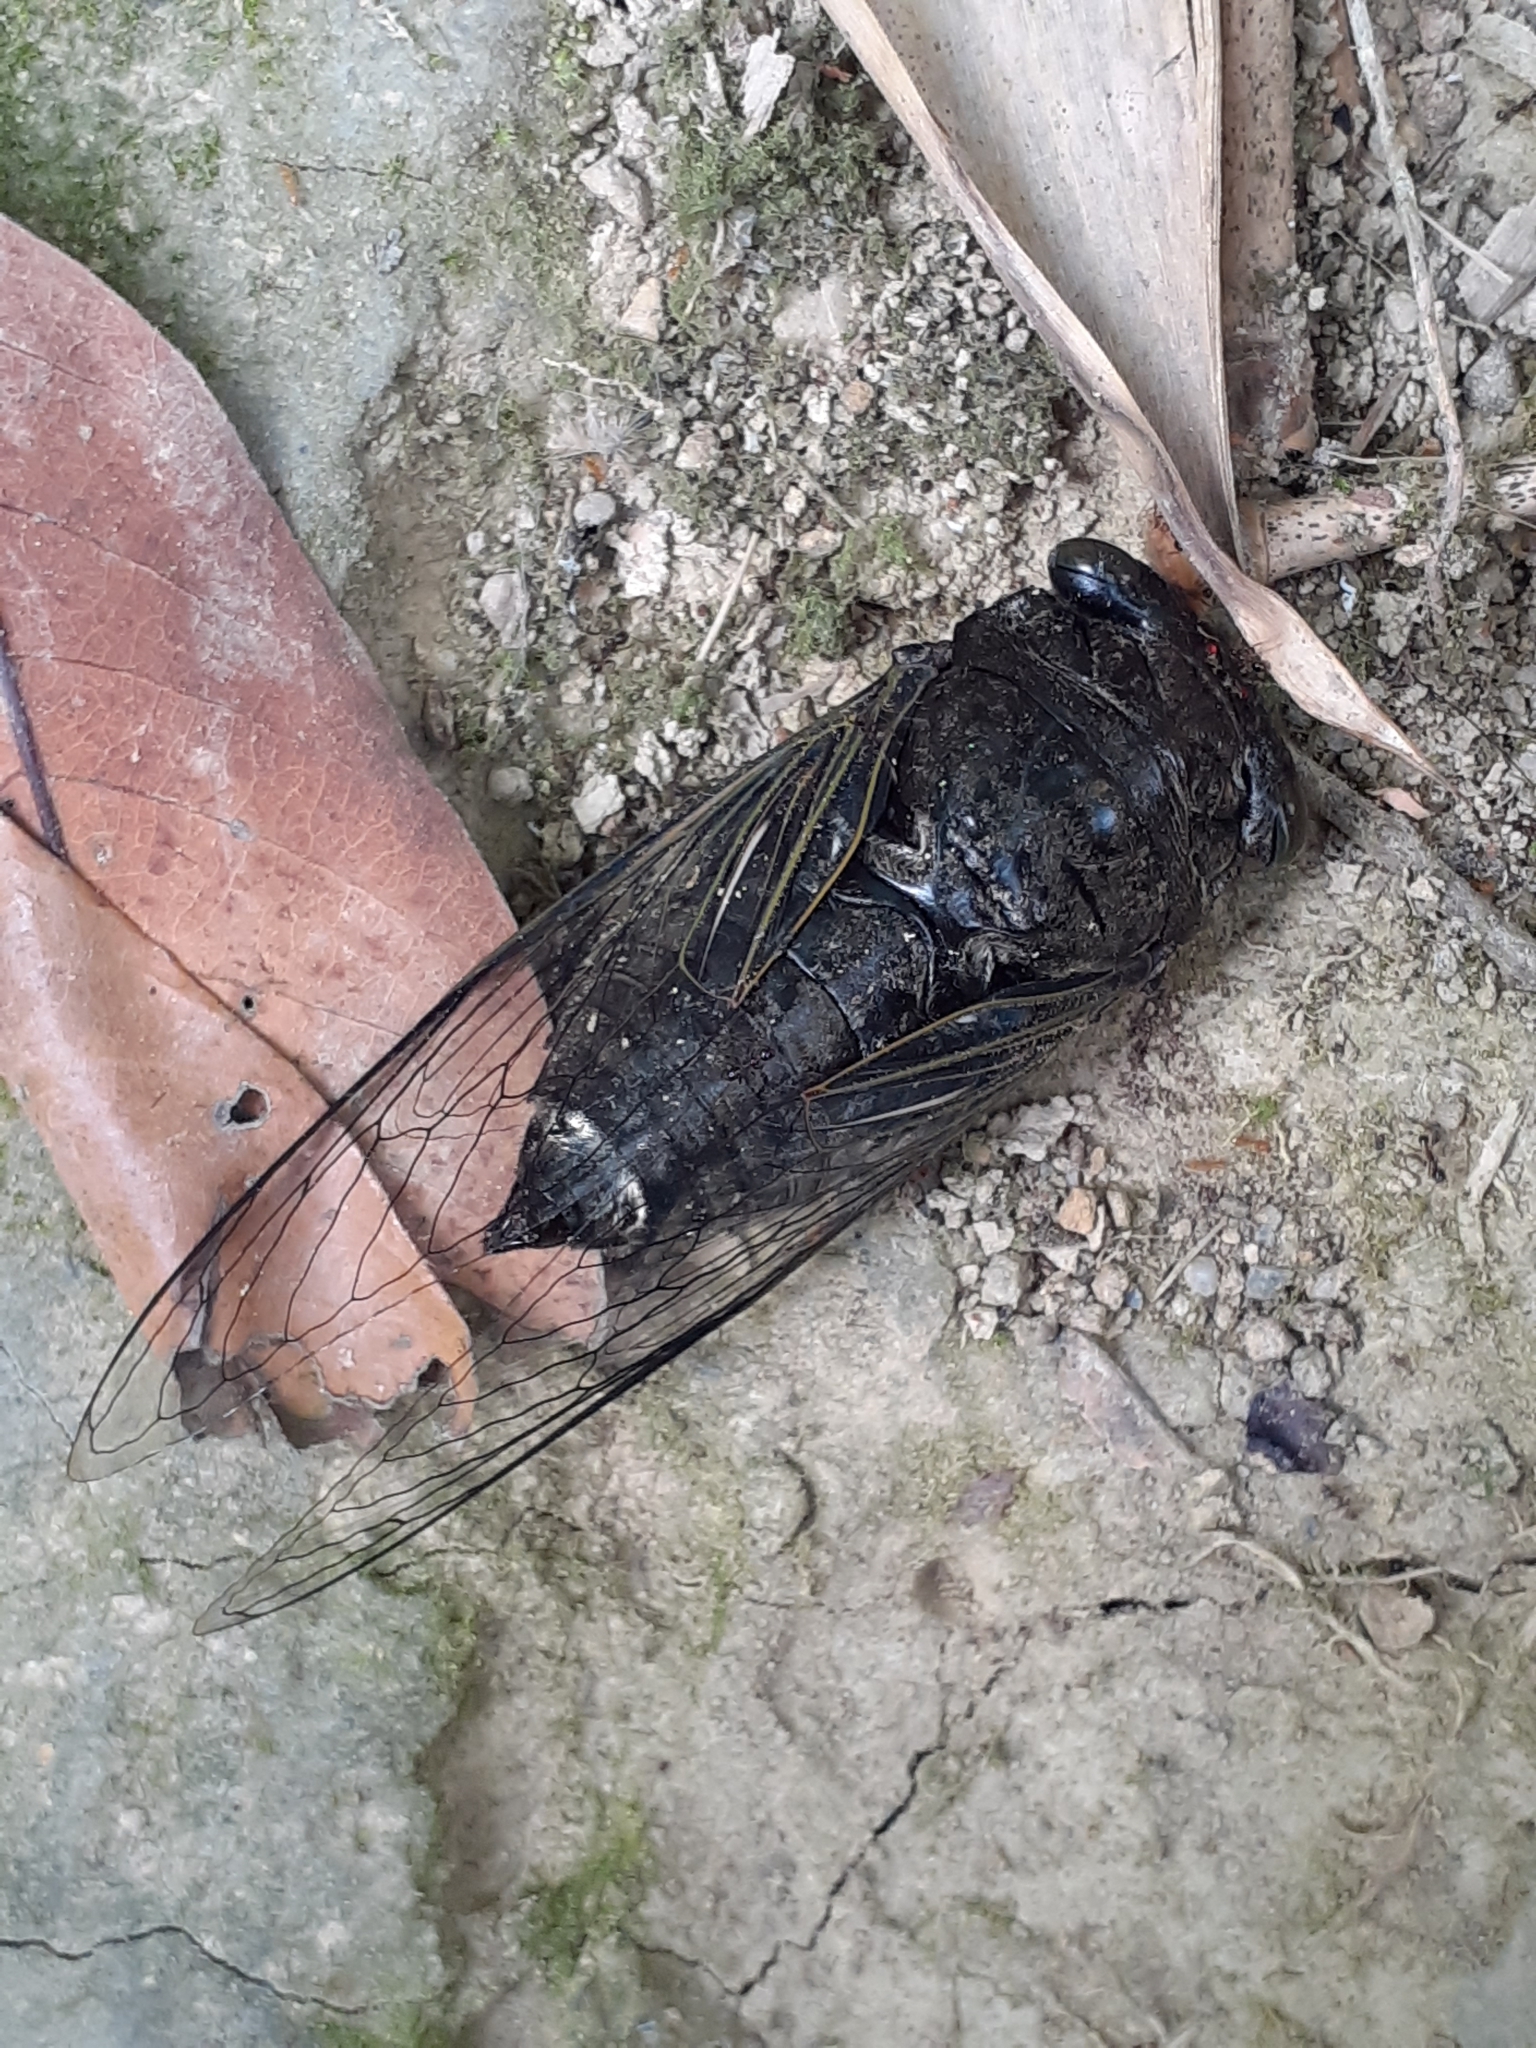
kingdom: Animalia
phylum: Arthropoda
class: Insecta
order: Hemiptera
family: Cicadidae
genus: Cryptotympana
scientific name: Cryptotympana takasagona
